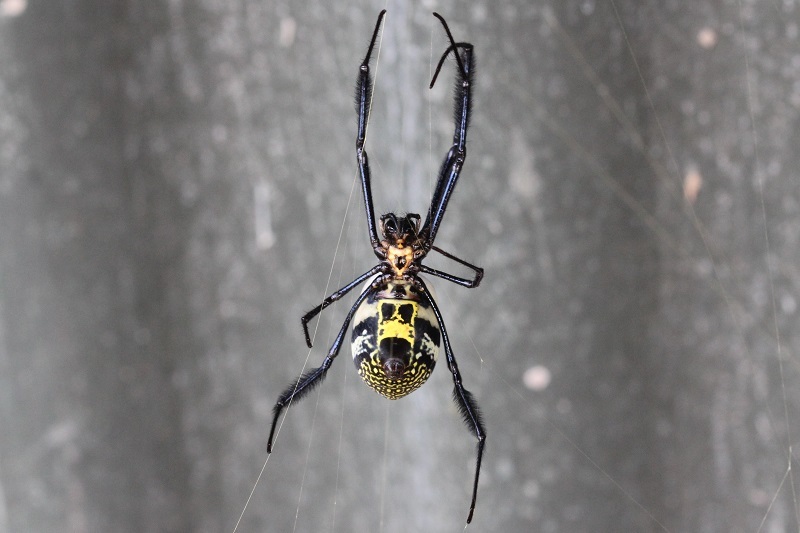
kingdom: Animalia
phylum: Arthropoda
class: Arachnida
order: Araneae
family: Araneidae
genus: Trichonephila
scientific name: Trichonephila fenestrata
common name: Hairy golden orb weaver
